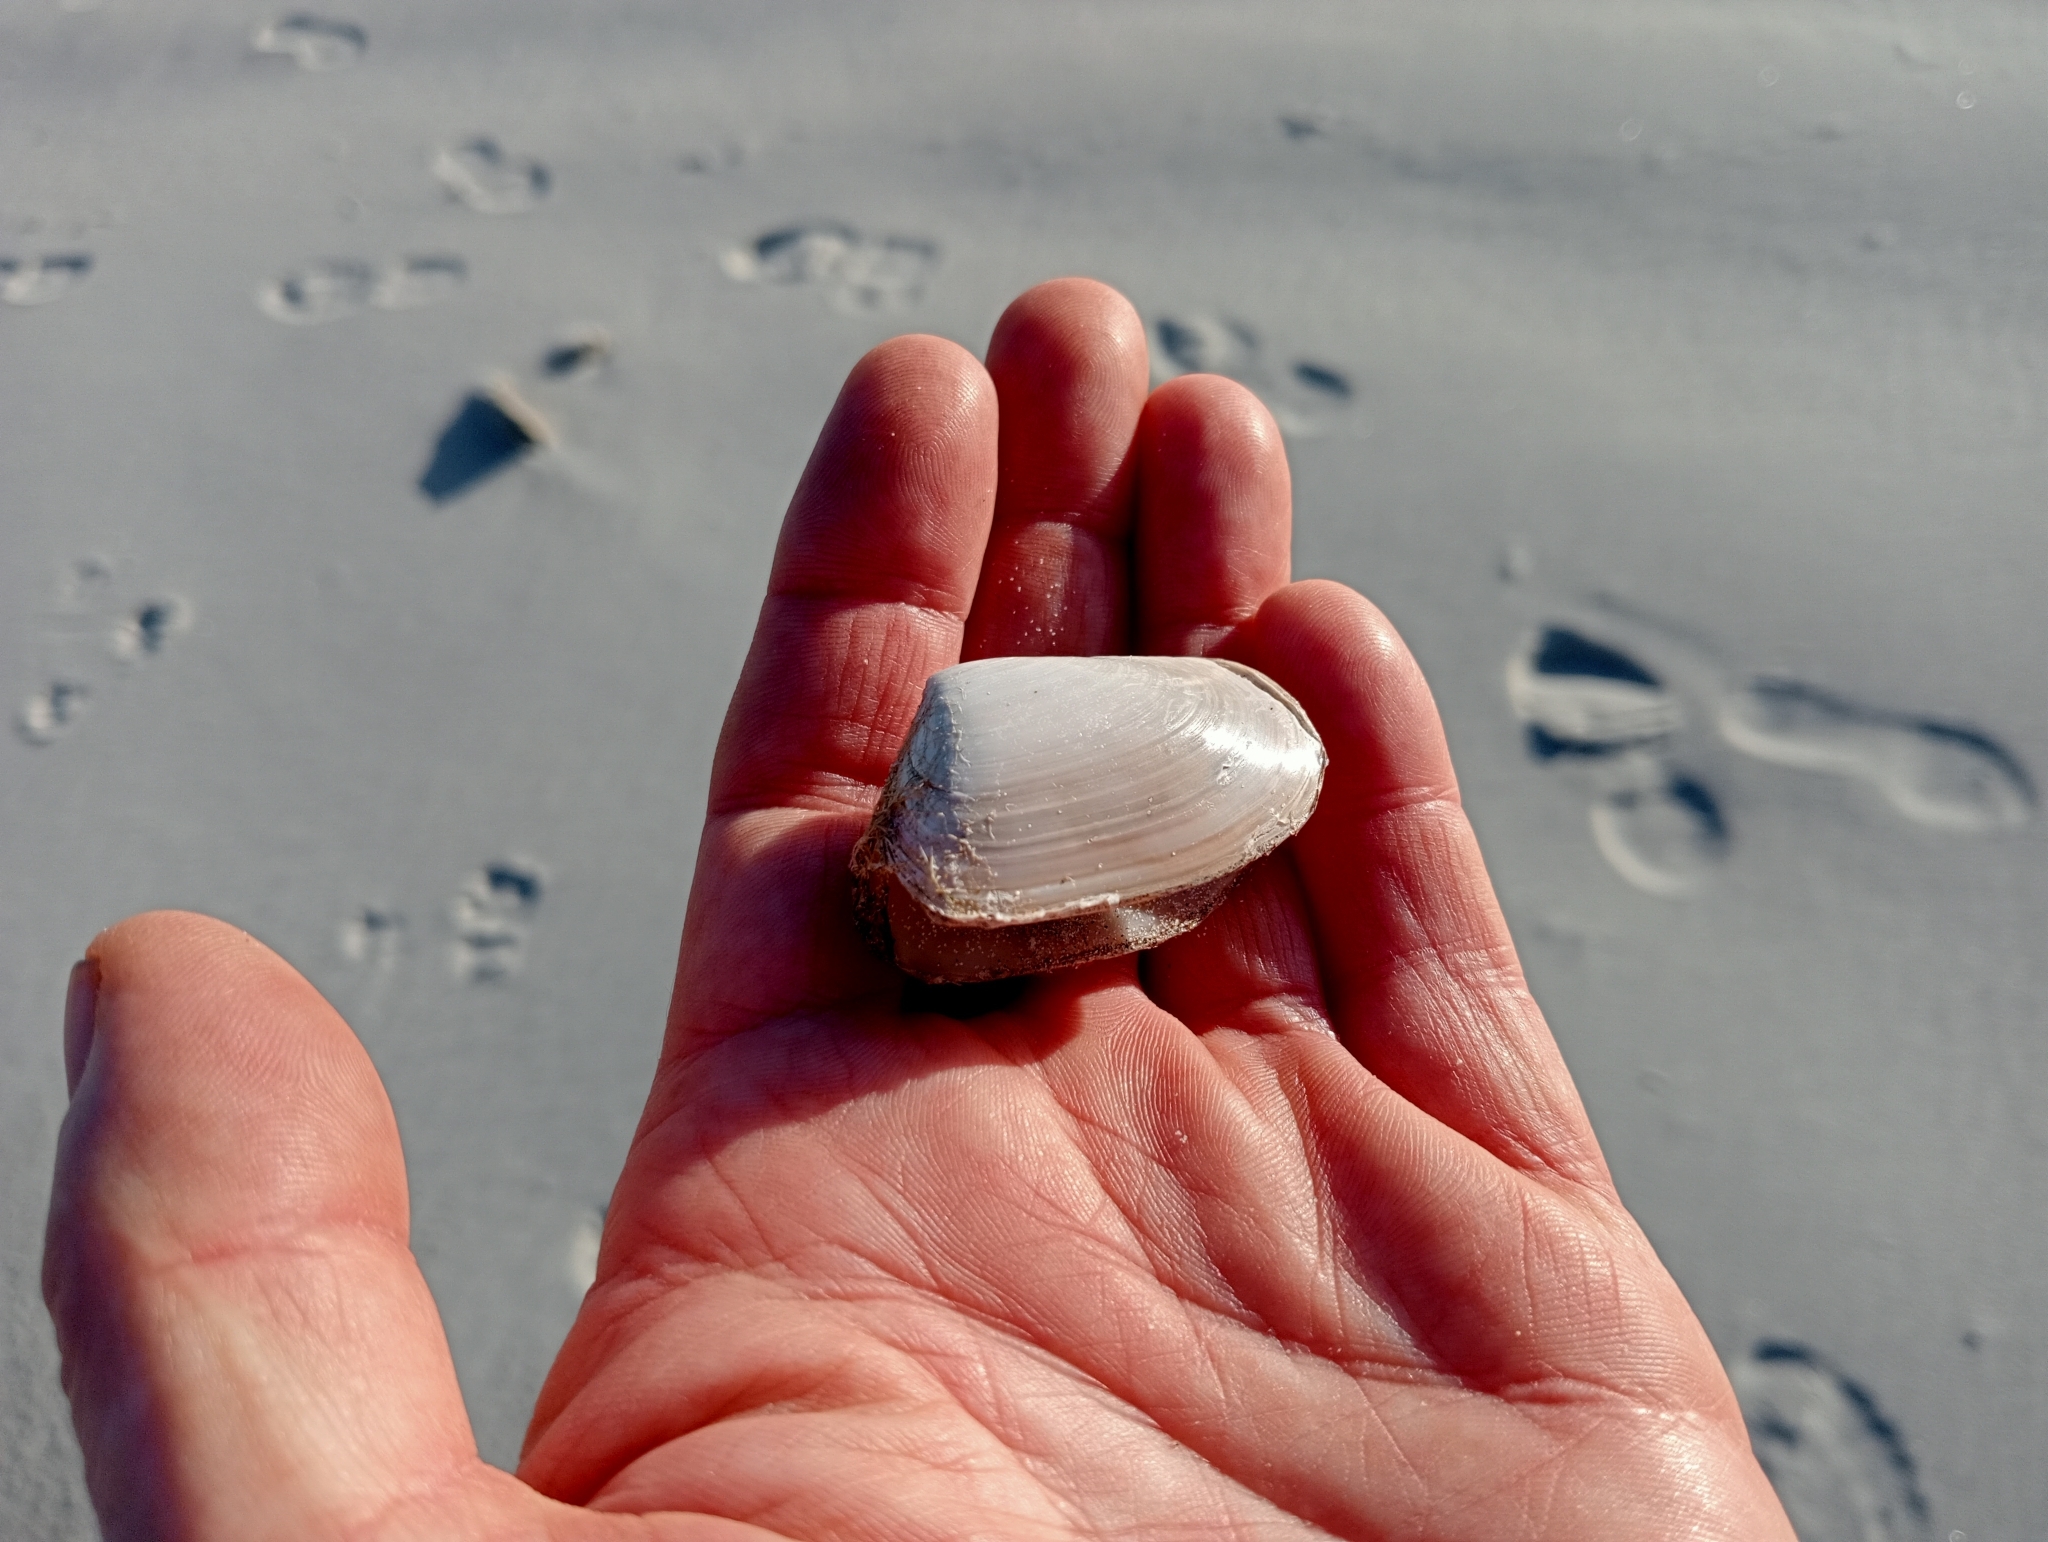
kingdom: Animalia
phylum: Mollusca
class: Bivalvia
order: Venerida
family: Mesodesmatidae
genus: Paphies
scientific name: Paphies subtriangulata
